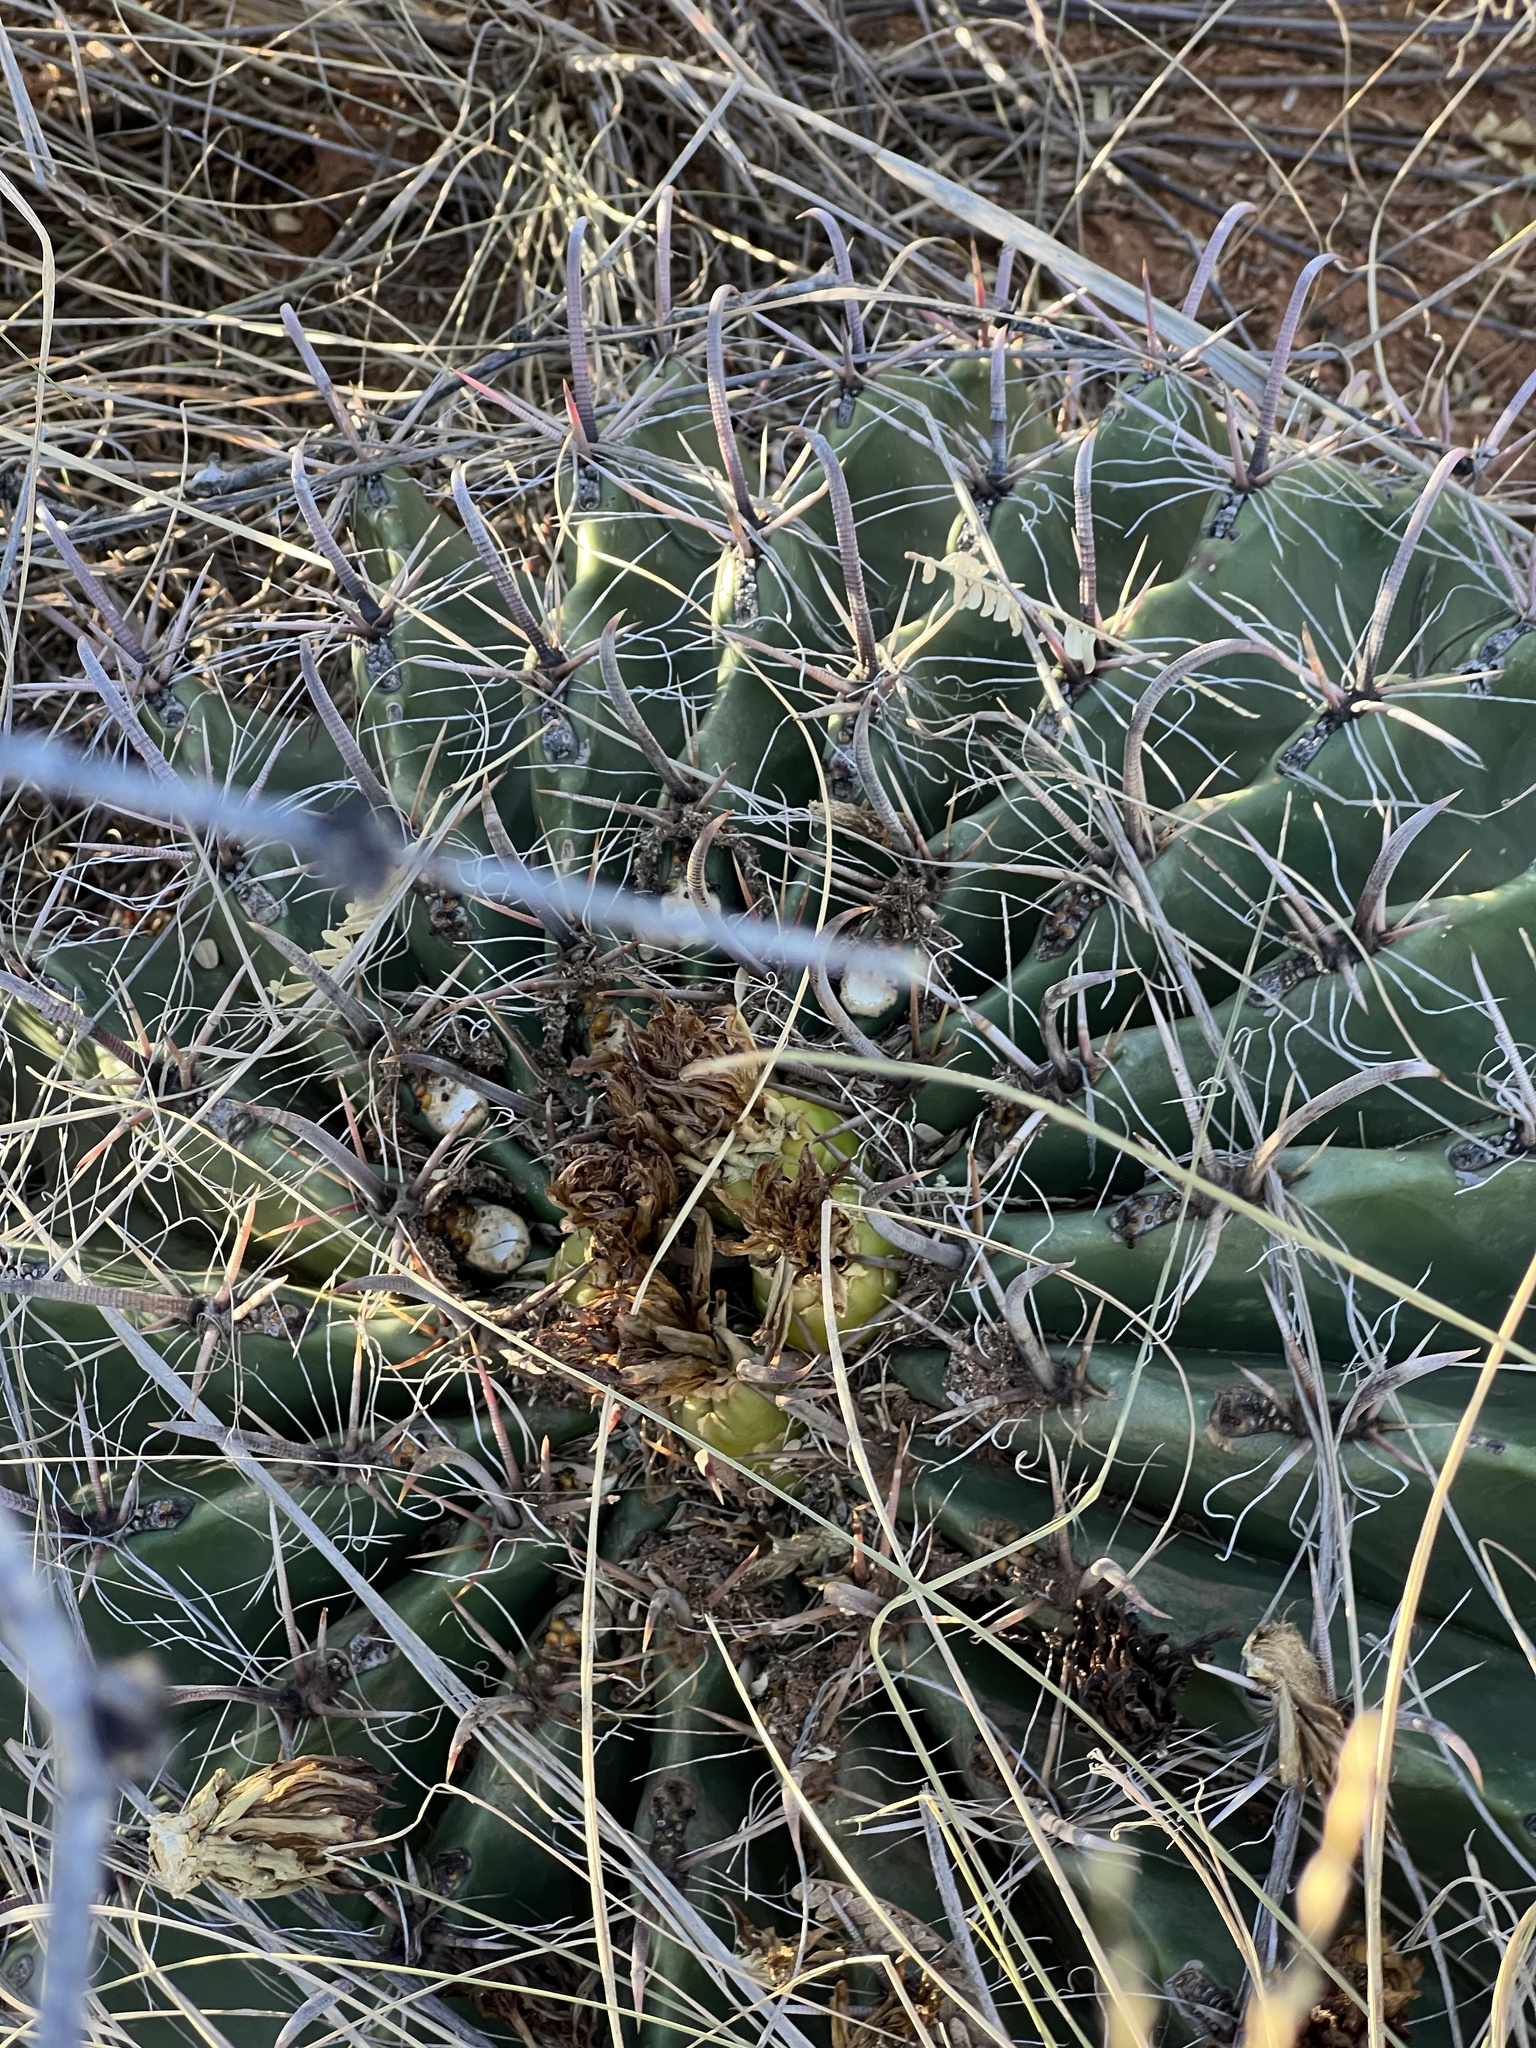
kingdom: Plantae
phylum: Tracheophyta
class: Magnoliopsida
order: Caryophyllales
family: Cactaceae
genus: Ferocactus
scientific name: Ferocactus wislizeni
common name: Candy barrel cactus
